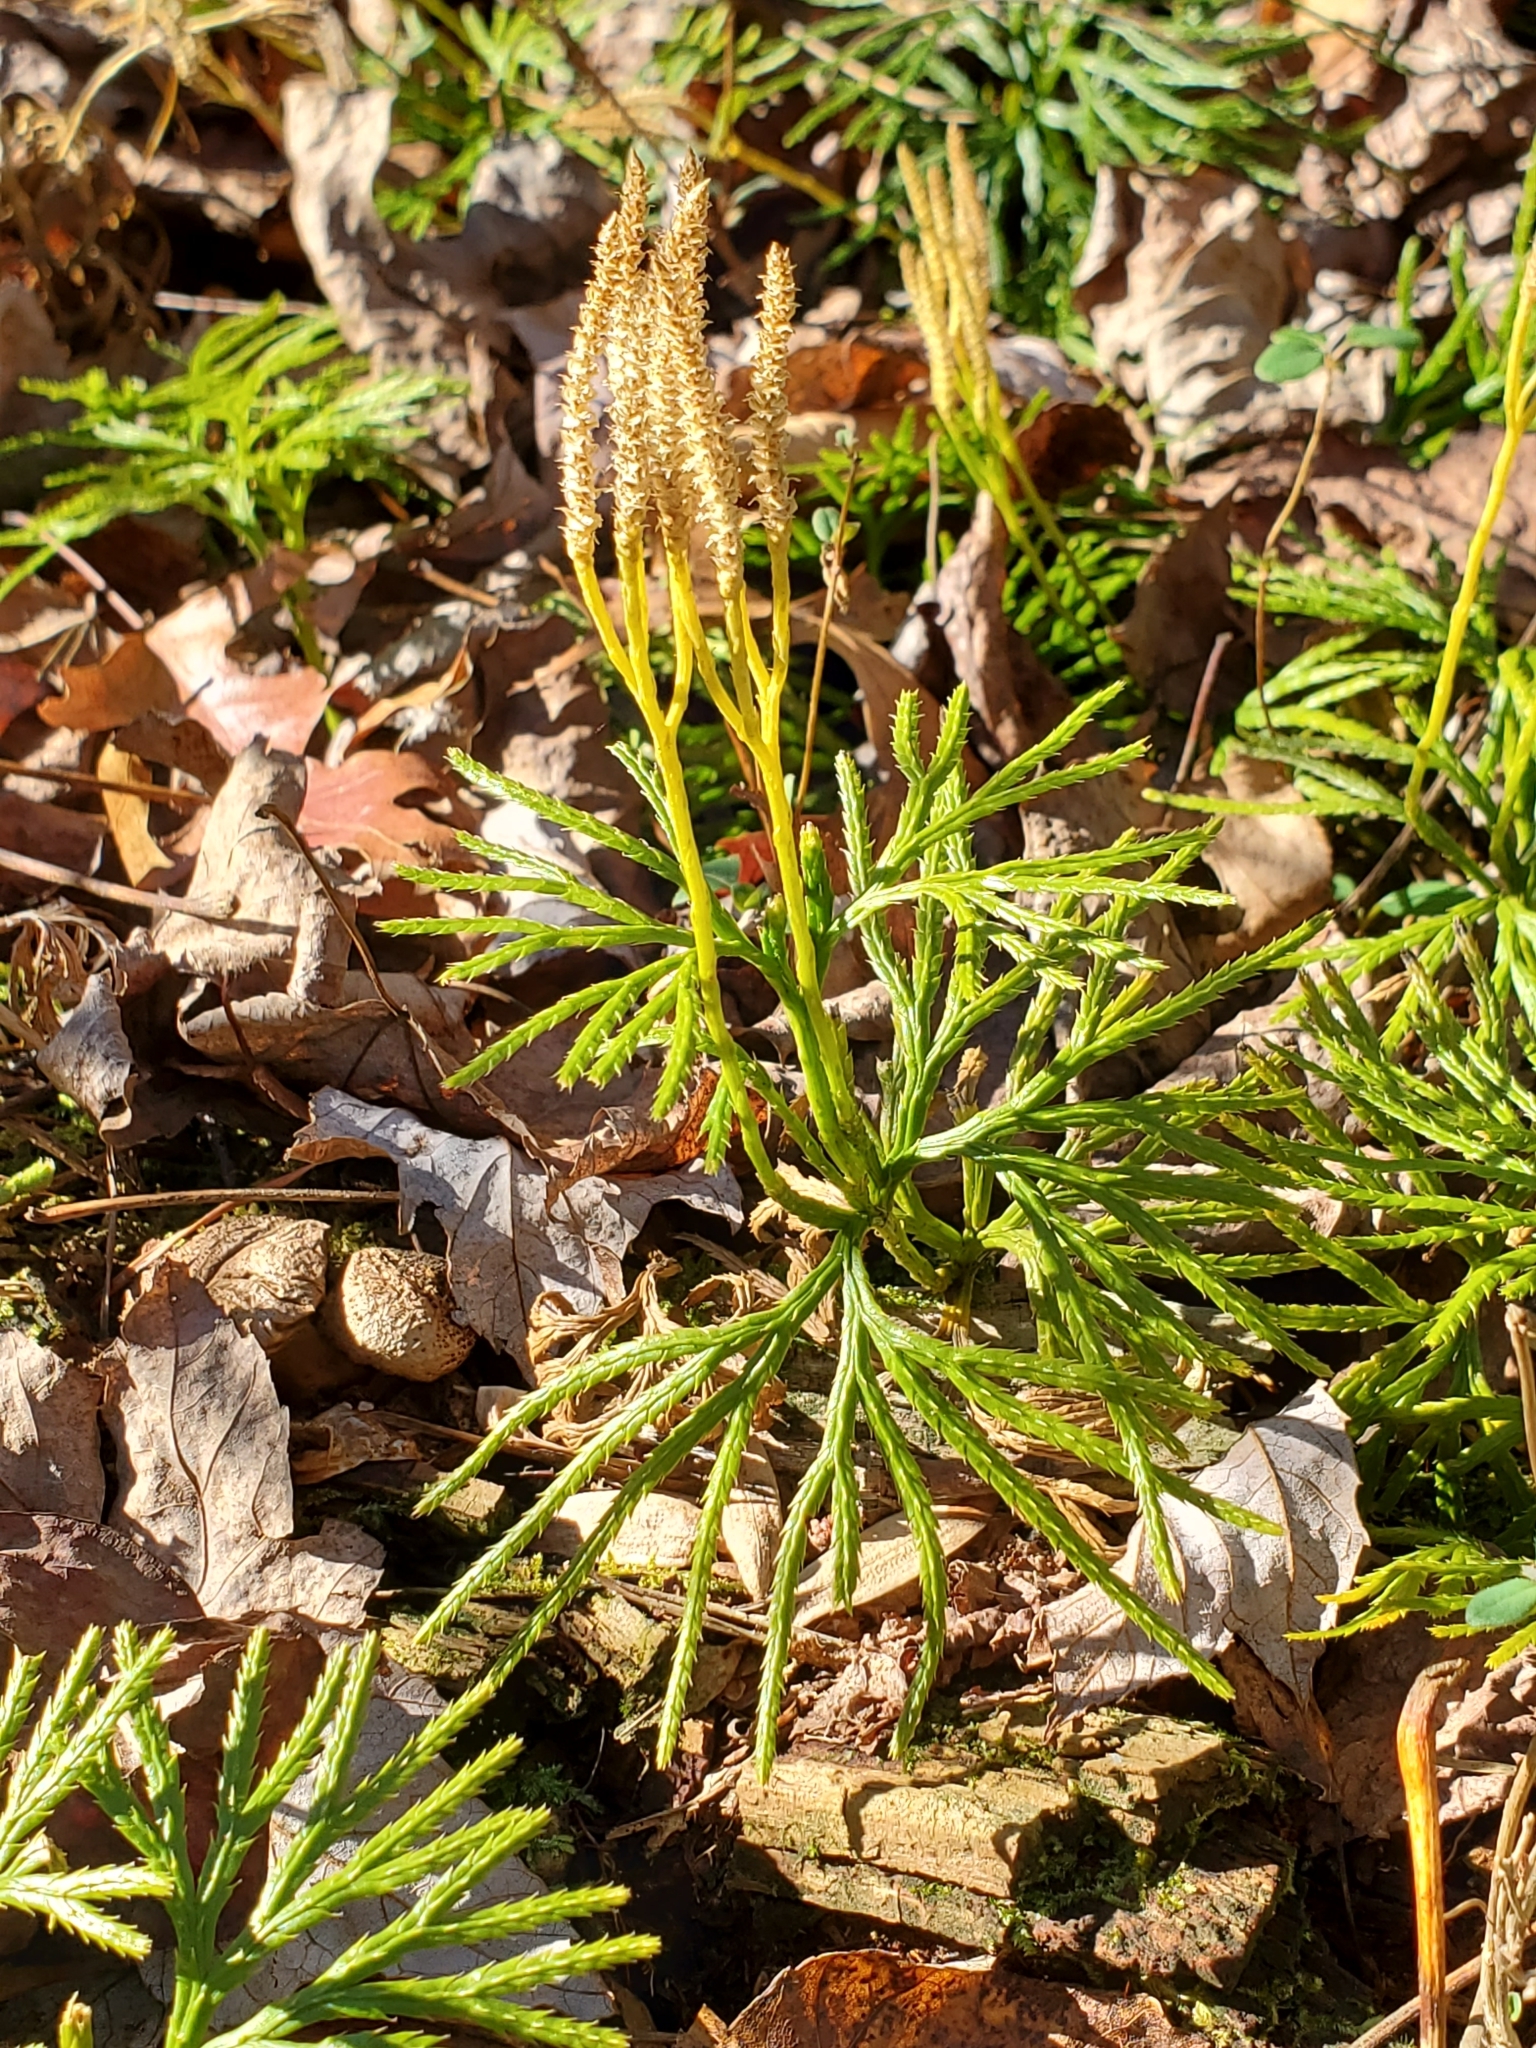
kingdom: Plantae
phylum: Tracheophyta
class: Lycopodiopsida
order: Lycopodiales
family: Lycopodiaceae
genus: Diphasiastrum
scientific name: Diphasiastrum digitatum
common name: Southern running-pine
